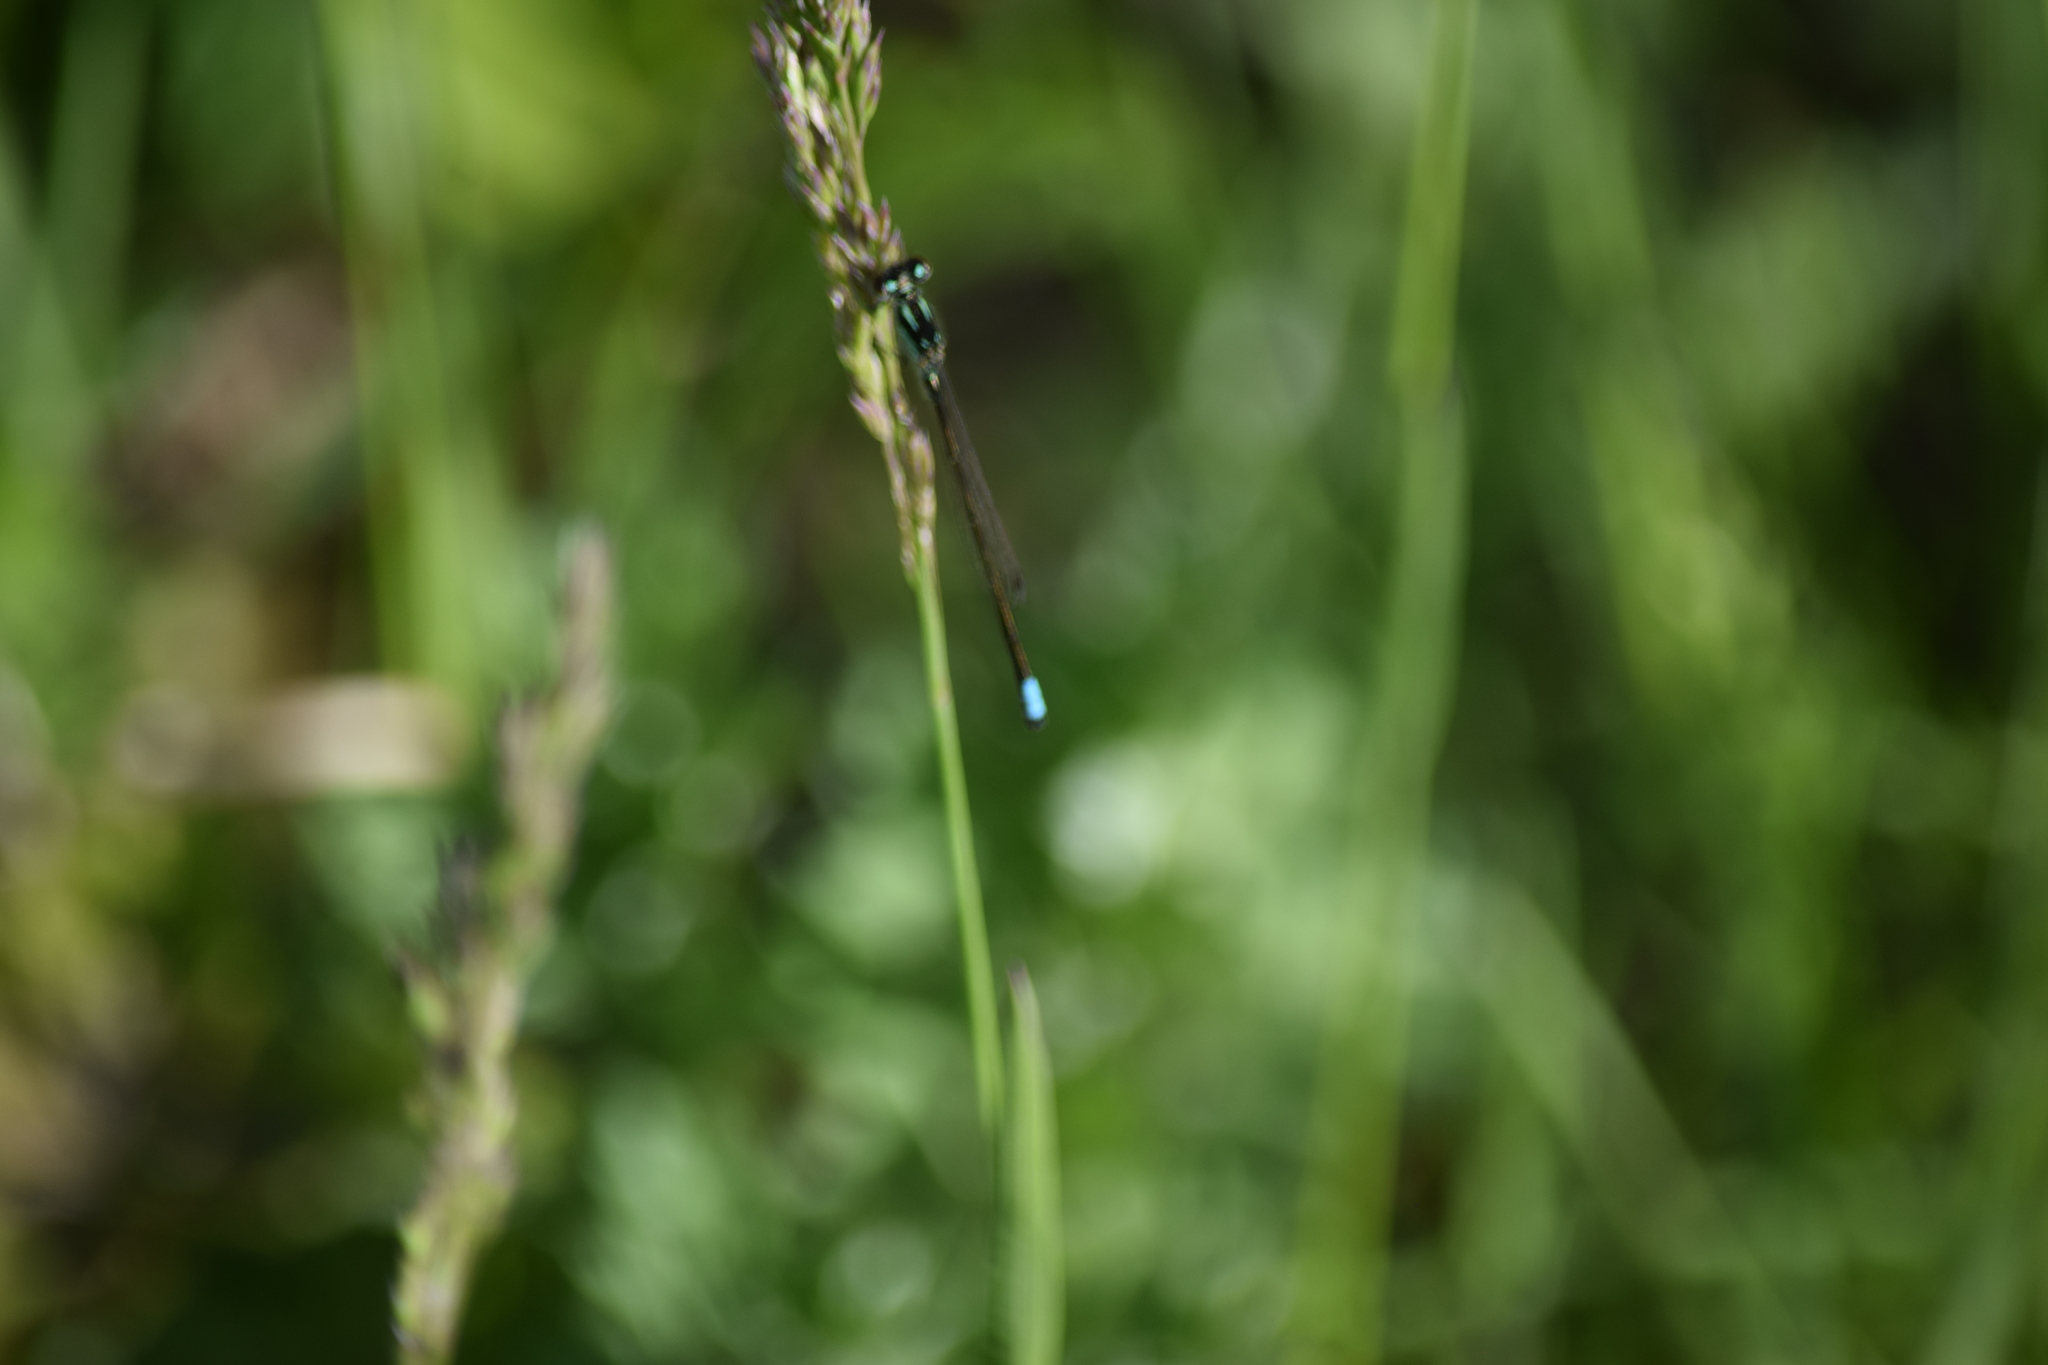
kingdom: Animalia
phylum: Arthropoda
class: Insecta
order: Odonata
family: Coenagrionidae
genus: Ischnura
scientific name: Ischnura verticalis
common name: Eastern forktail
